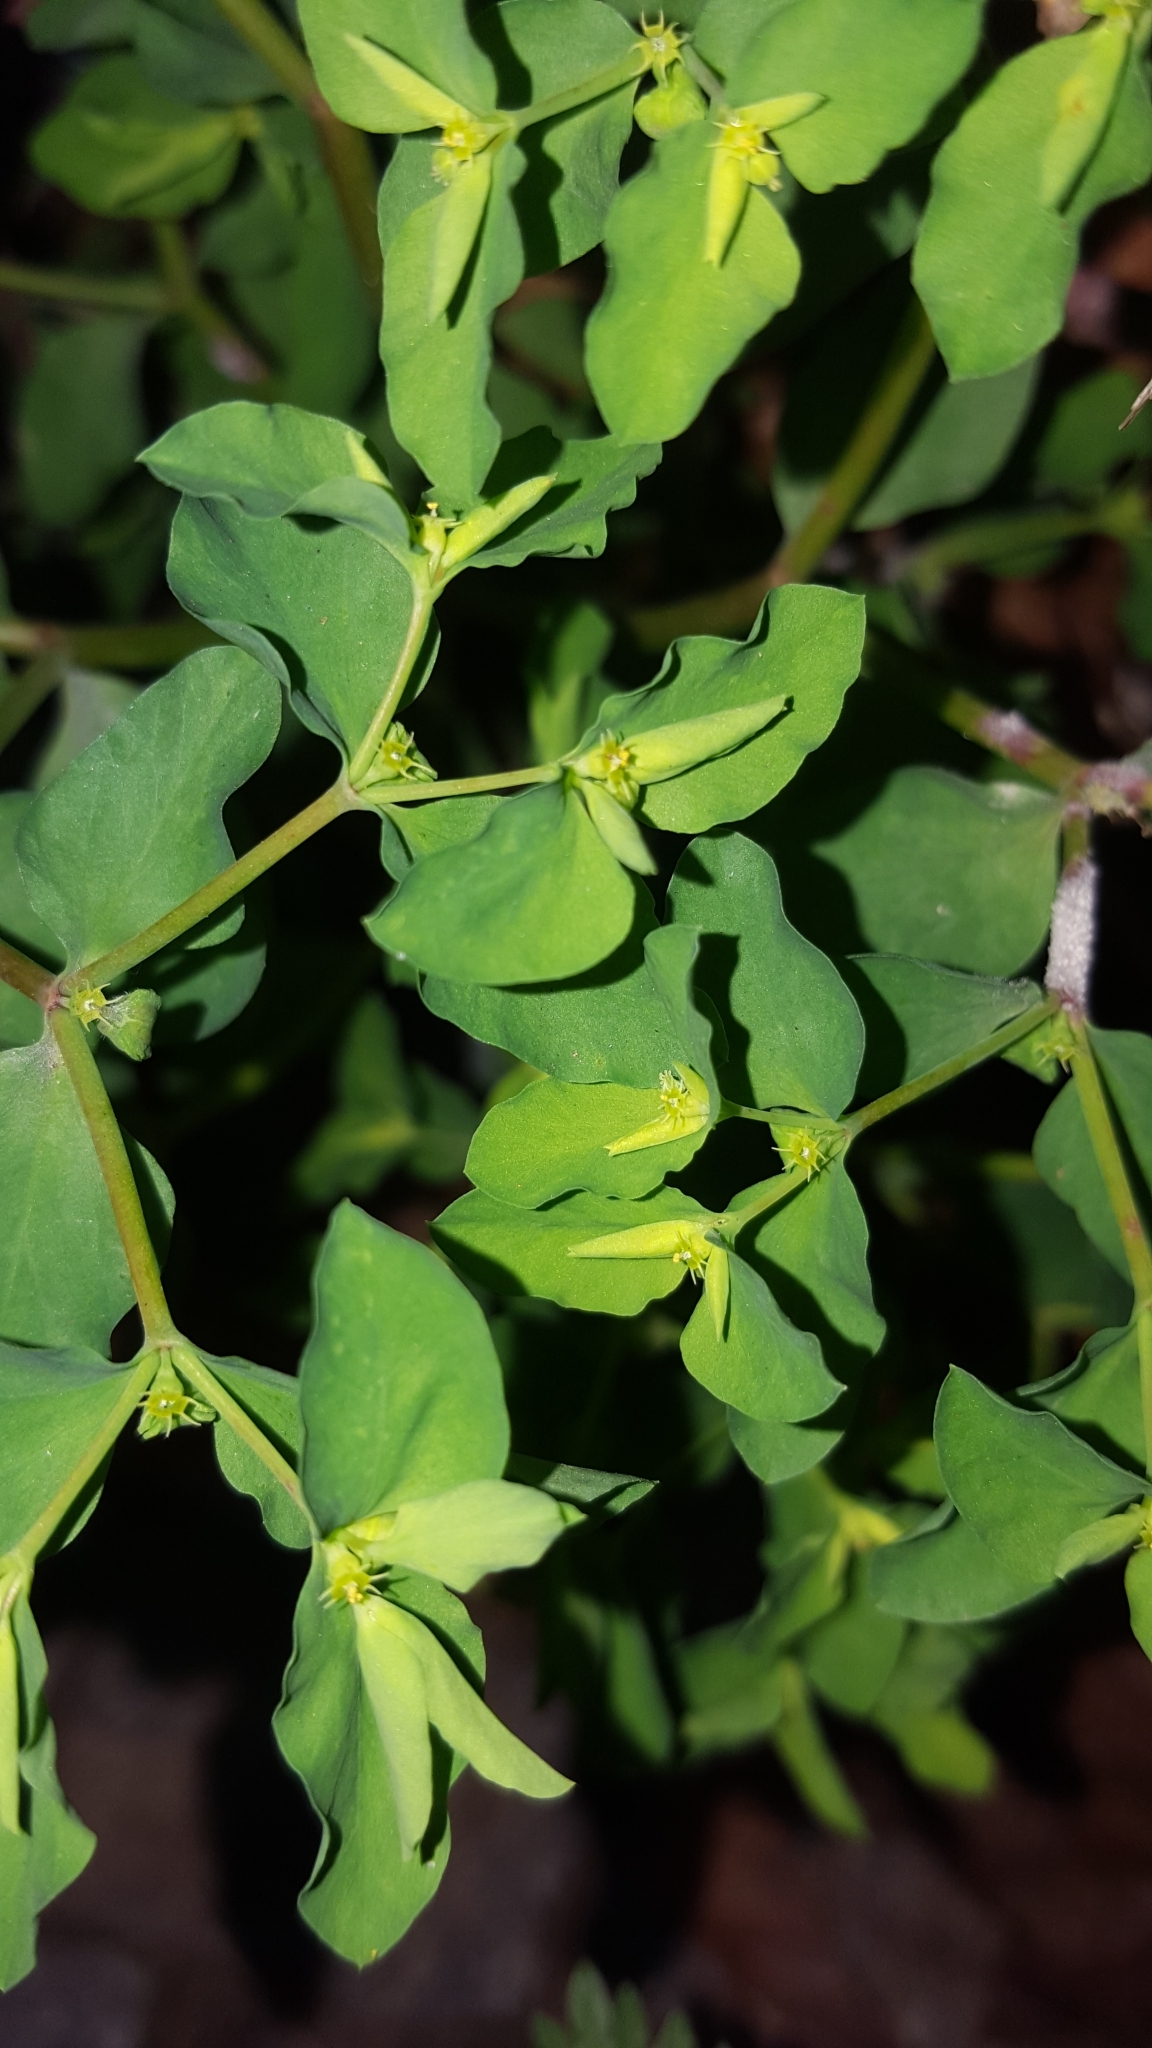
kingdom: Plantae
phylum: Tracheophyta
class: Magnoliopsida
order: Malpighiales
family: Euphorbiaceae
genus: Euphorbia
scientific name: Euphorbia peplus
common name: Petty spurge
